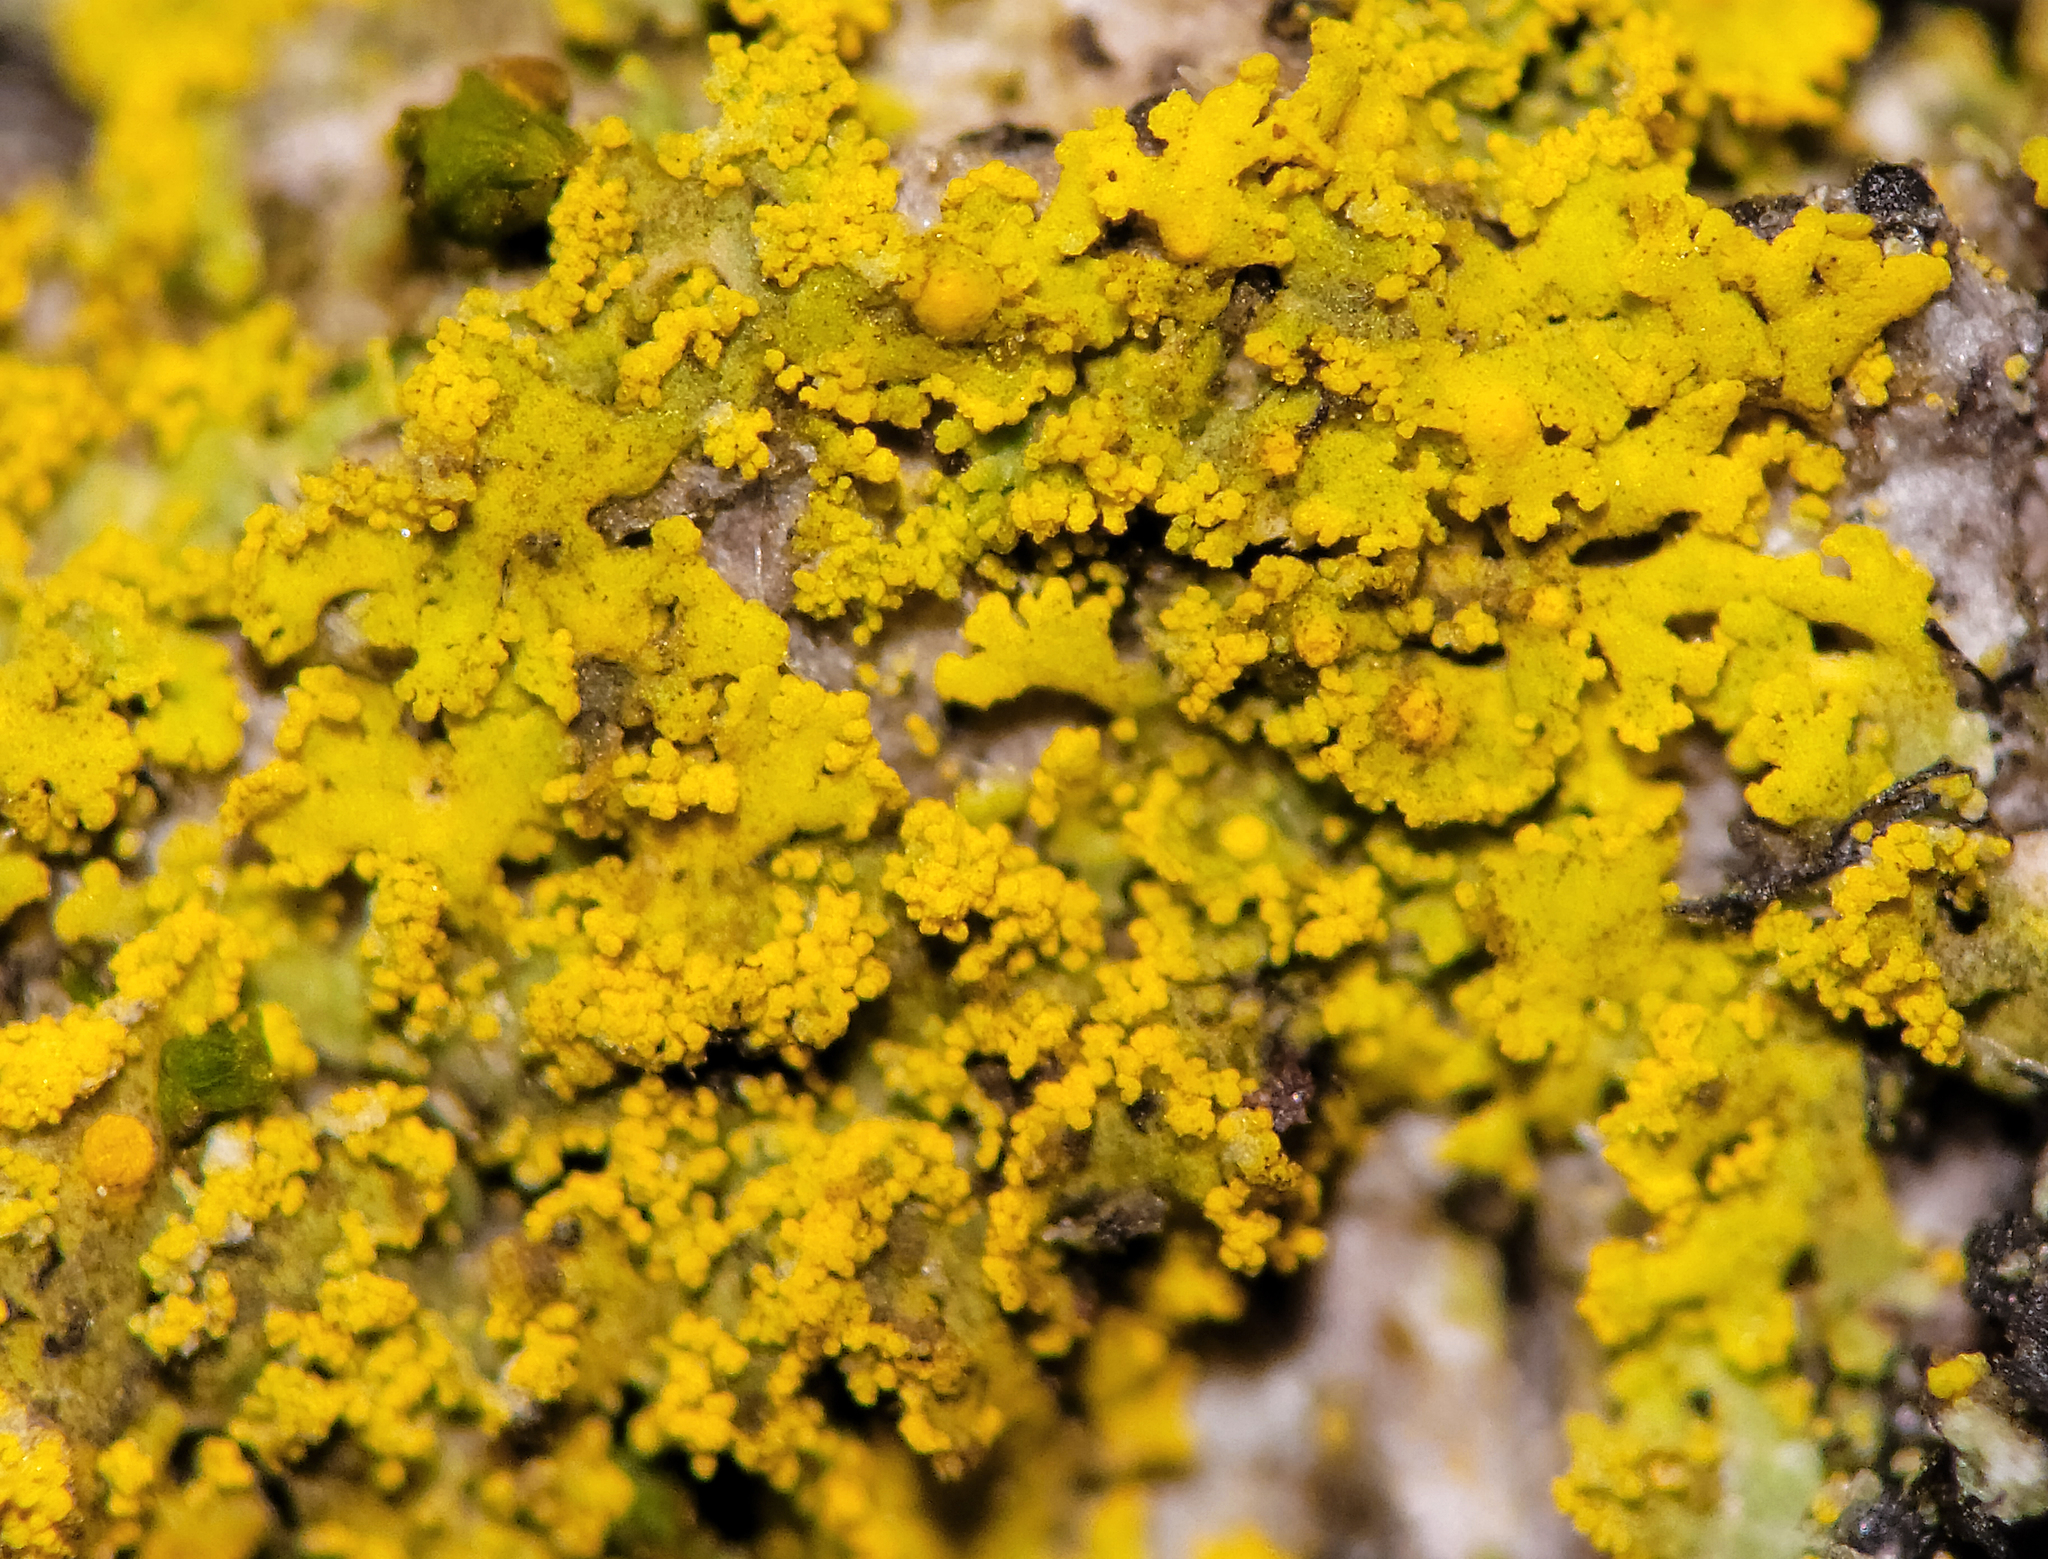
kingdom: Fungi
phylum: Ascomycota
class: Candelariomycetes
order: Candelariales
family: Candelariaceae
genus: Candelaria
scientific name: Candelaria concolor
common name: Candleflame lichen
